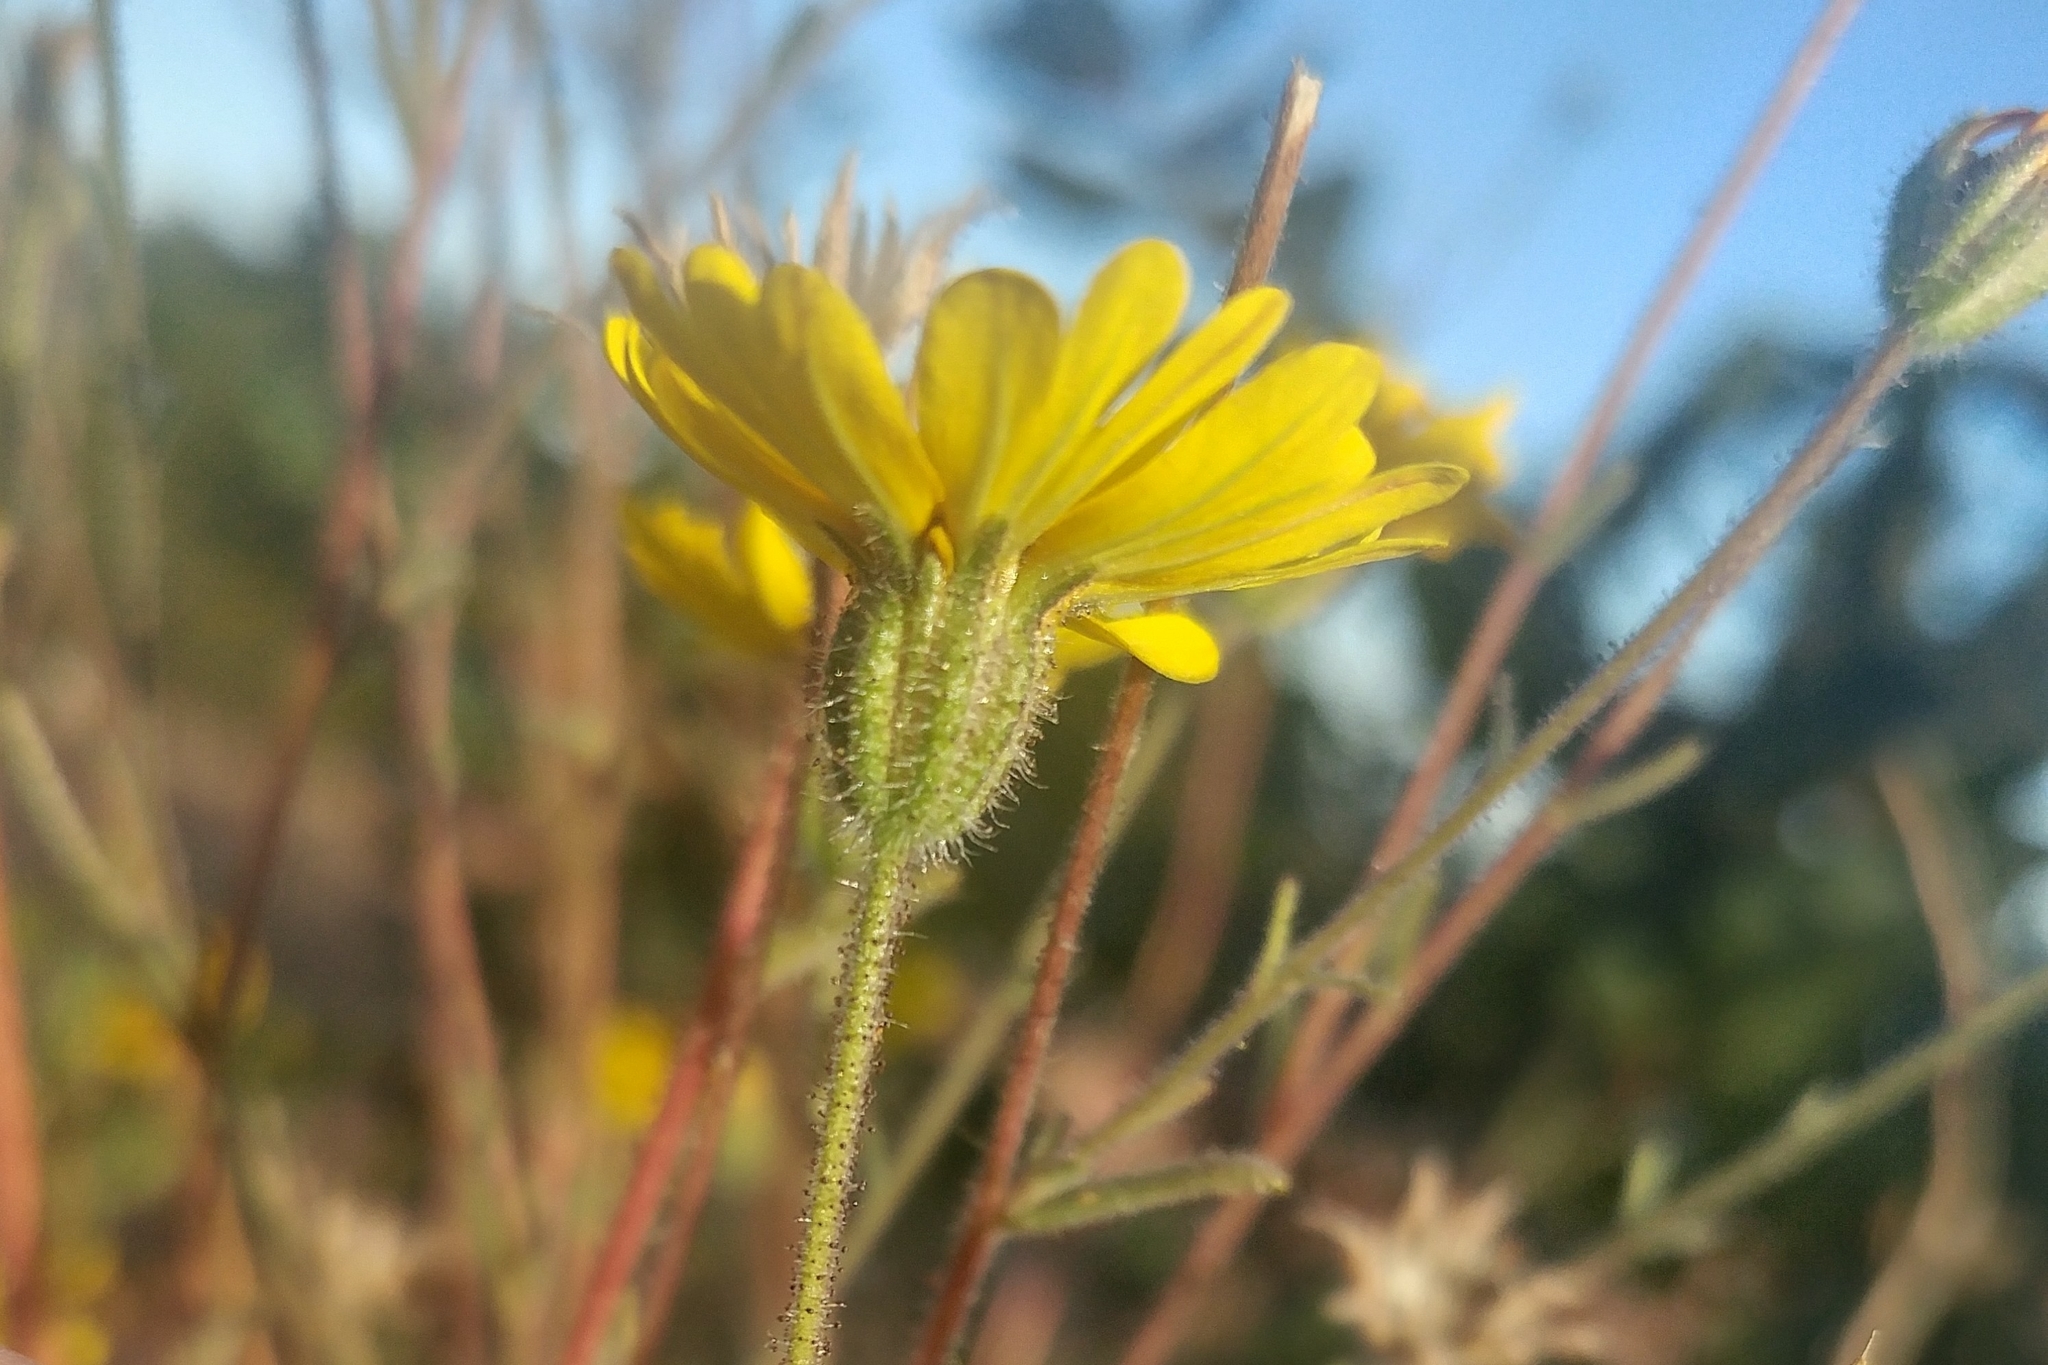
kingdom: Plantae
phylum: Tracheophyta
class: Magnoliopsida
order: Asterales
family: Asteraceae
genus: Madia
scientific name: Madia elegans
